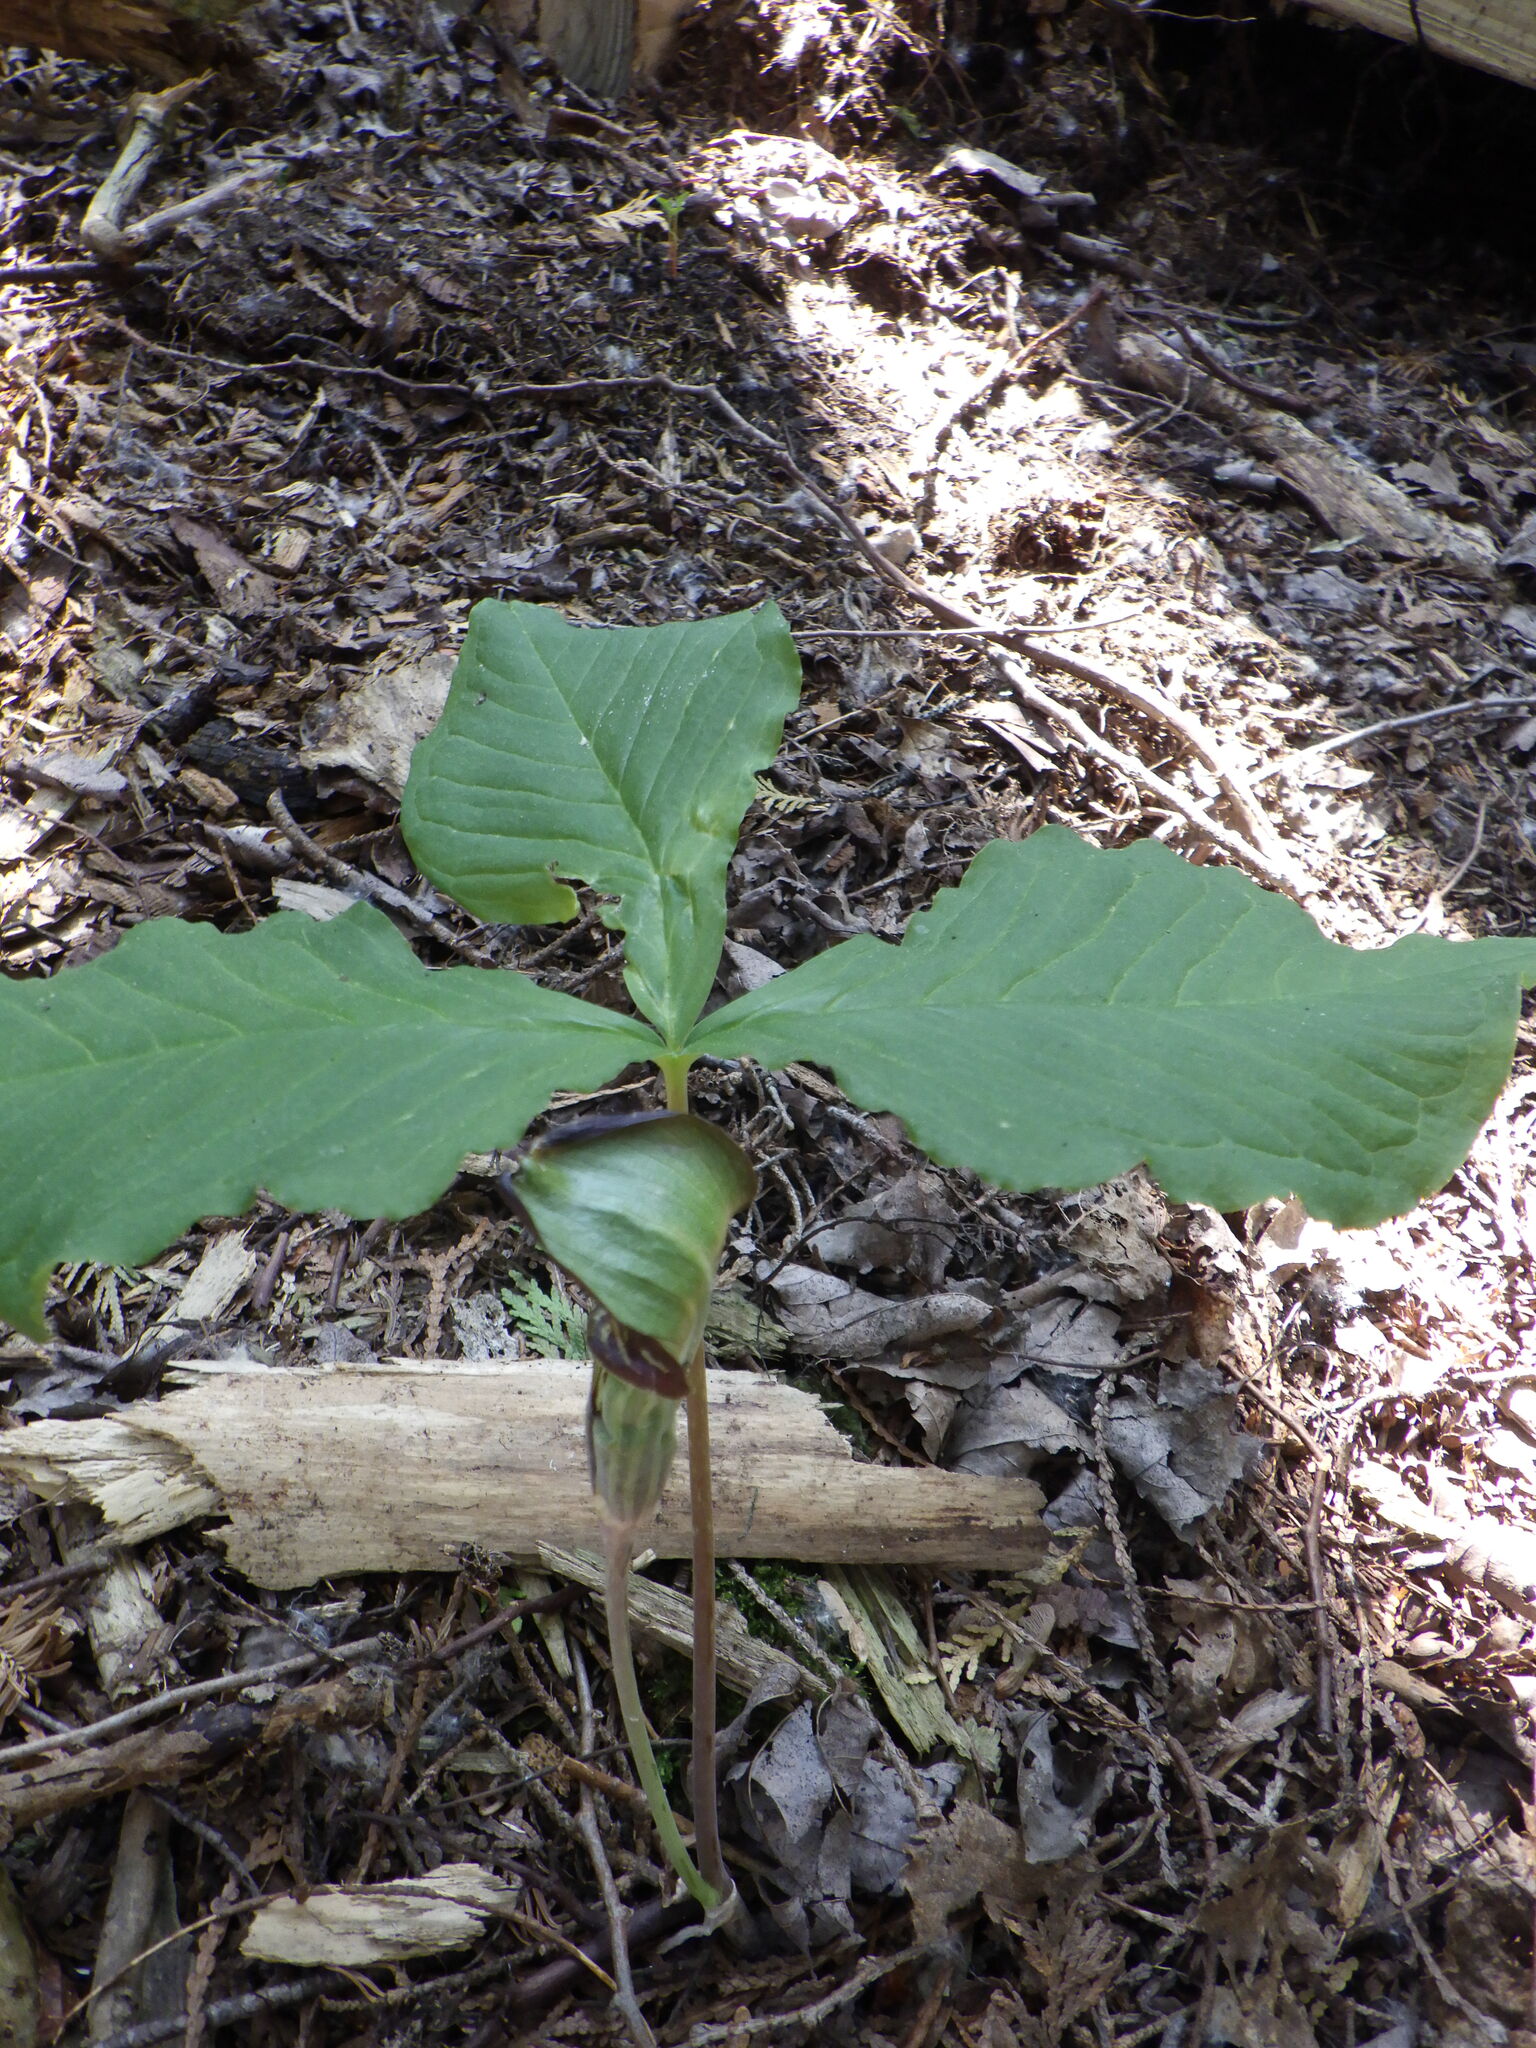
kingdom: Plantae
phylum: Tracheophyta
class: Liliopsida
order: Alismatales
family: Araceae
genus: Arisaema
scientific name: Arisaema triphyllum
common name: Jack-in-the-pulpit
